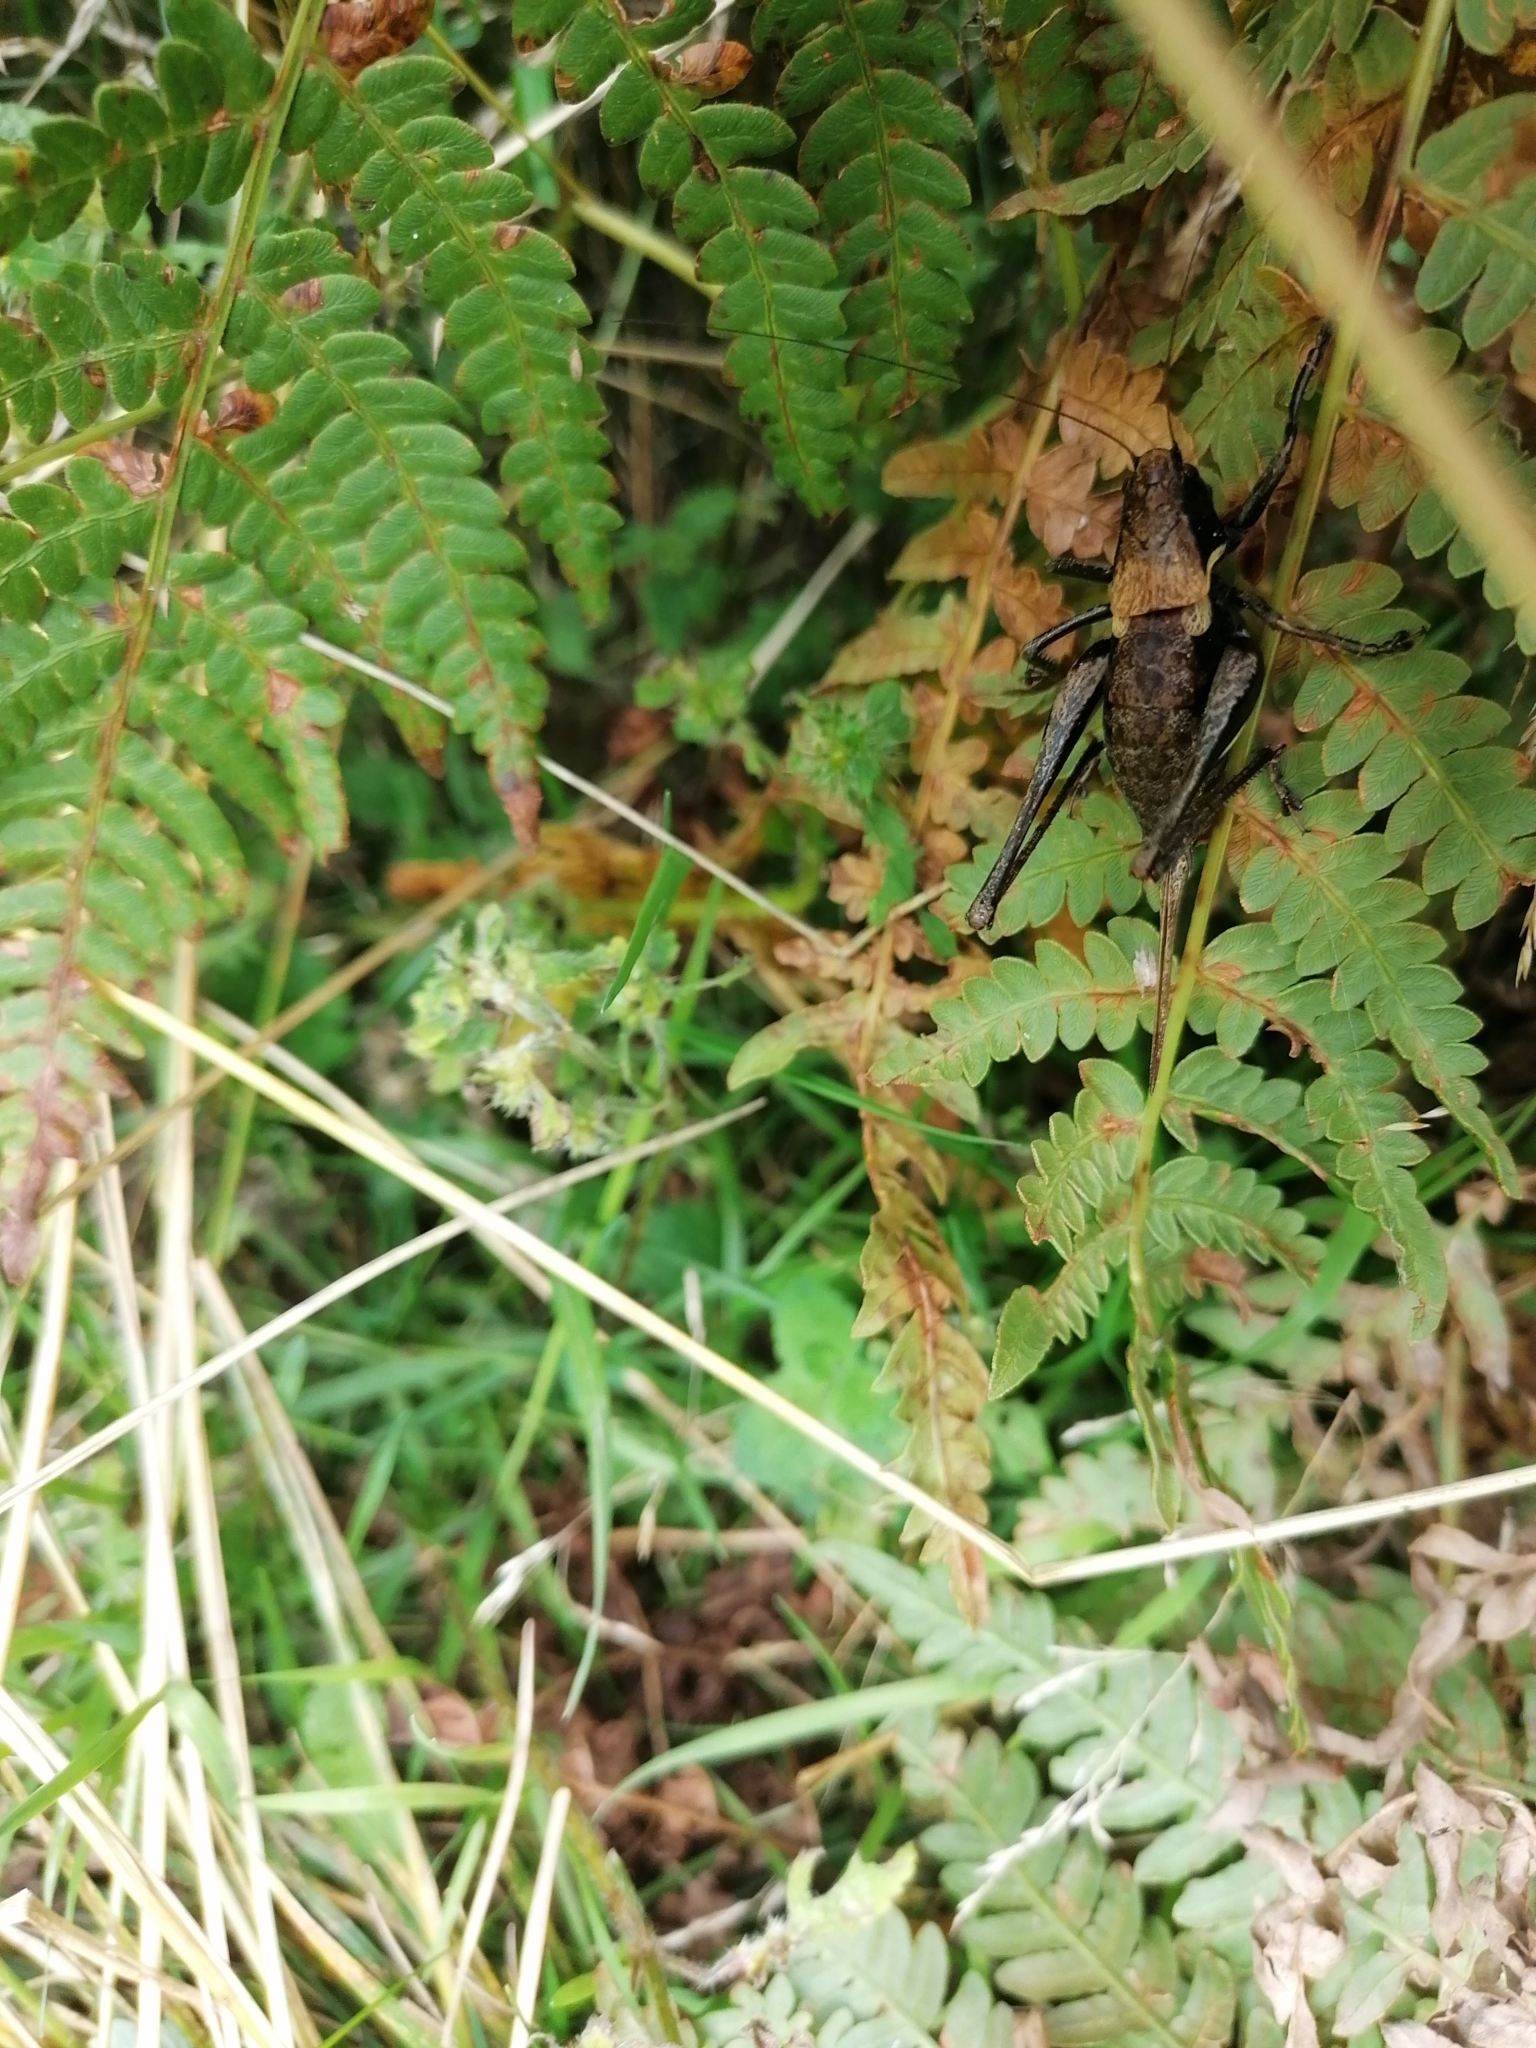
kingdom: Animalia
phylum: Arthropoda
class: Insecta
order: Orthoptera
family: Tettigoniidae
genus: Pholidoptera
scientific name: Pholidoptera aptera
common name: Alpine dark bush-cricket
